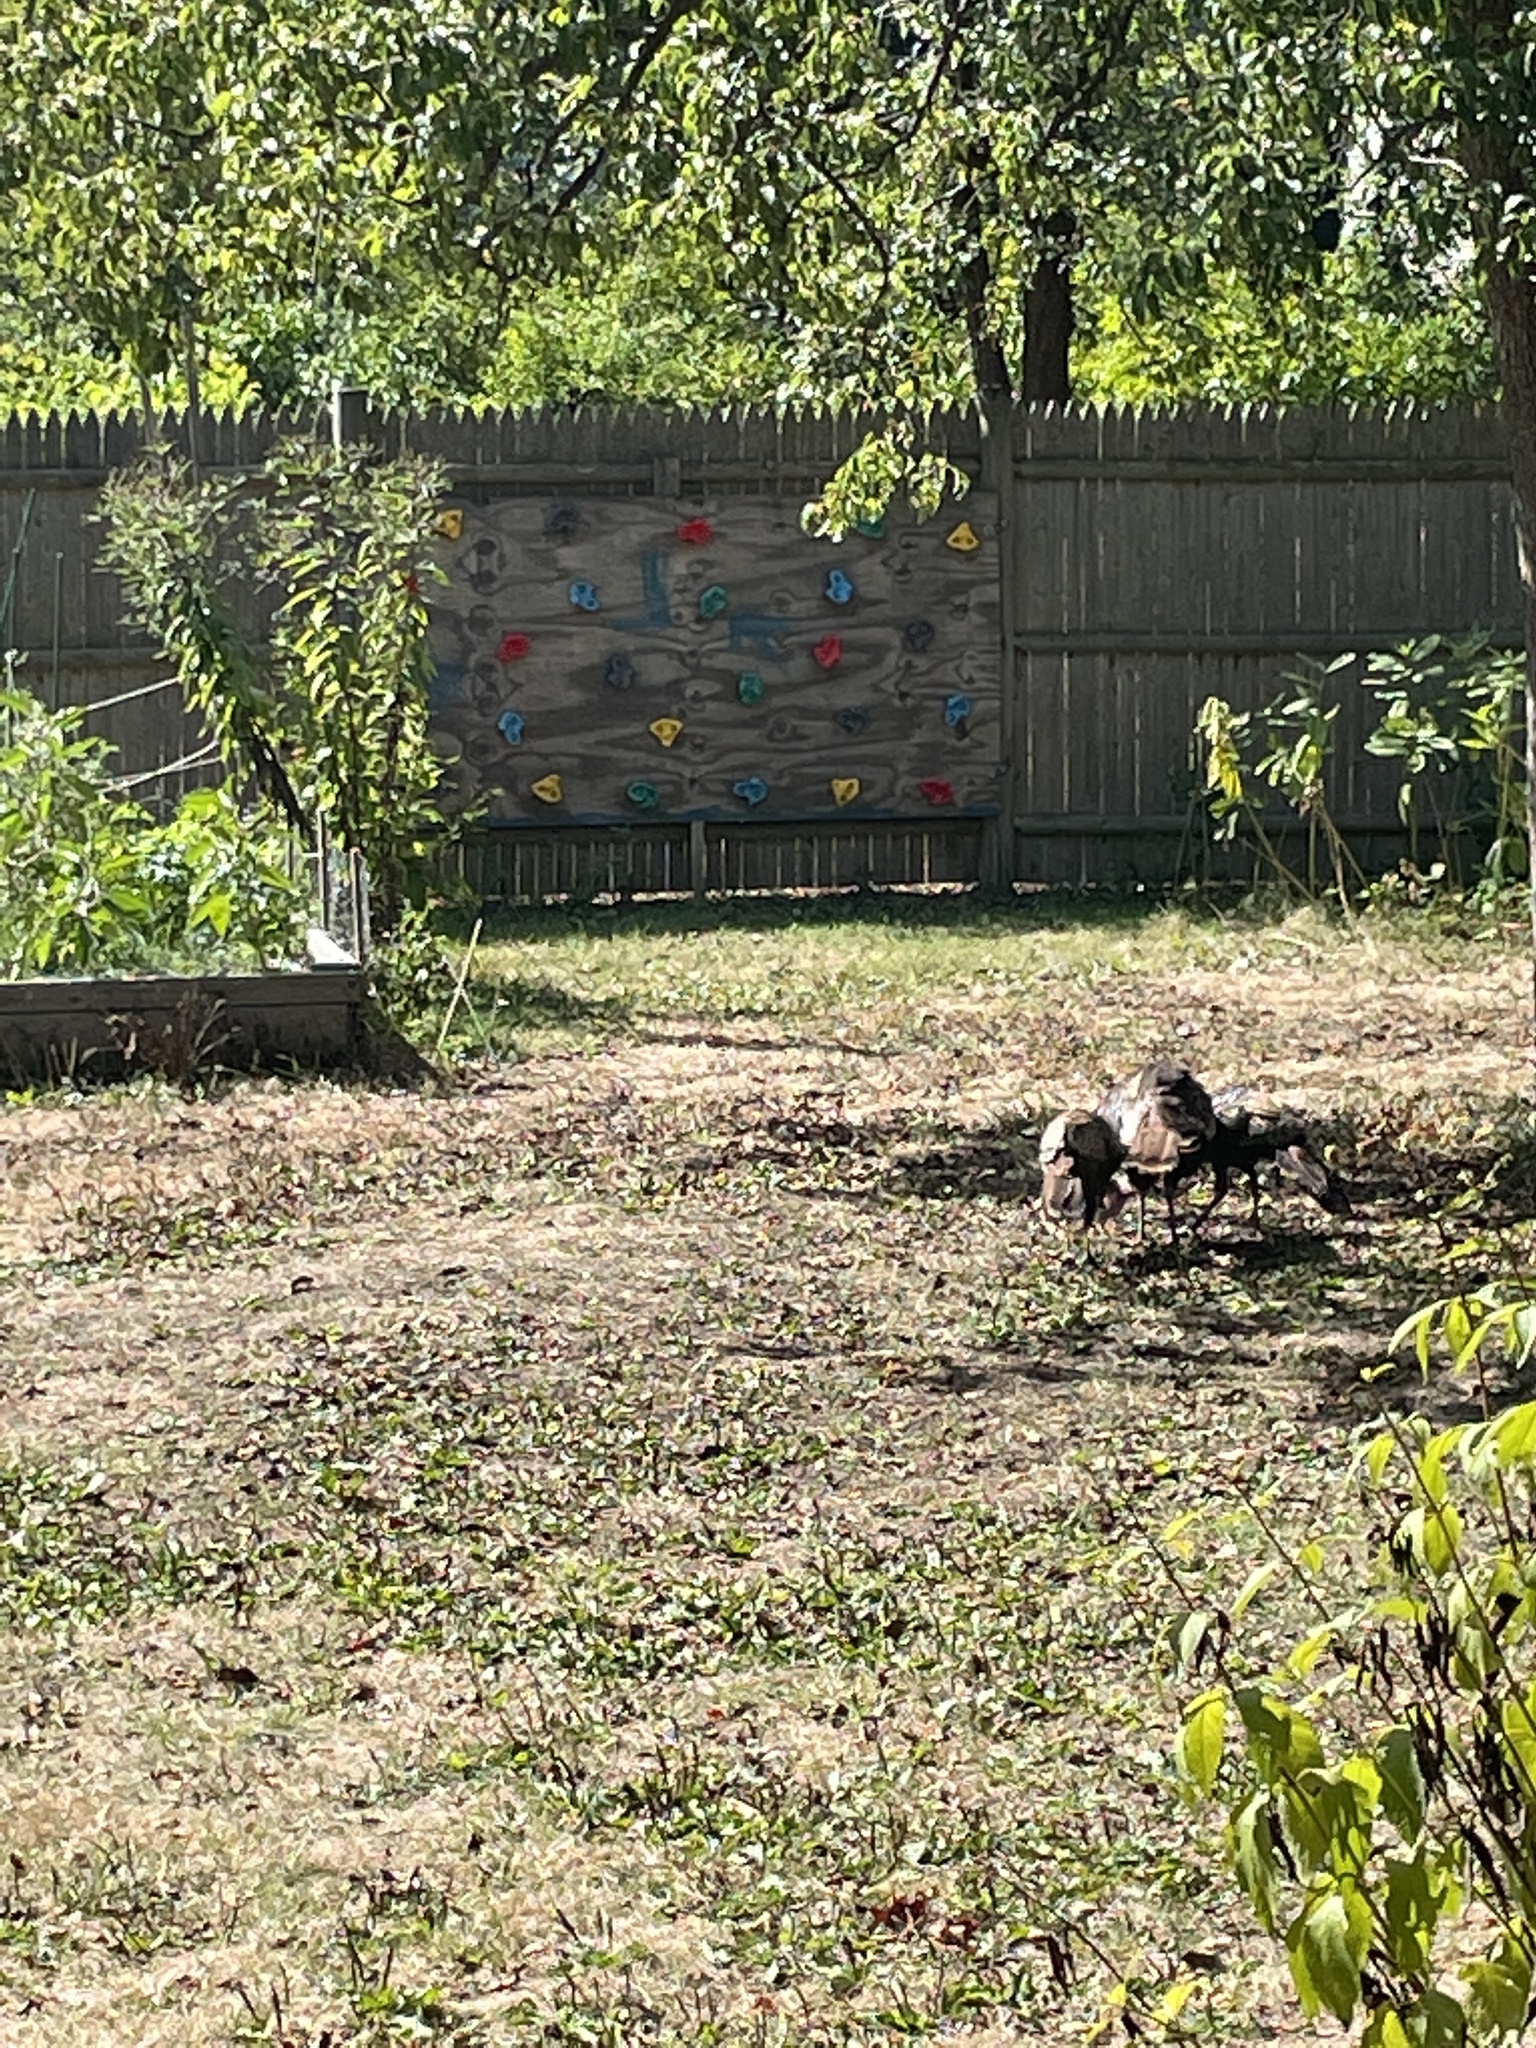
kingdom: Animalia
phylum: Chordata
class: Aves
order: Galliformes
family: Phasianidae
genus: Meleagris
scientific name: Meleagris gallopavo
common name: Wild turkey
